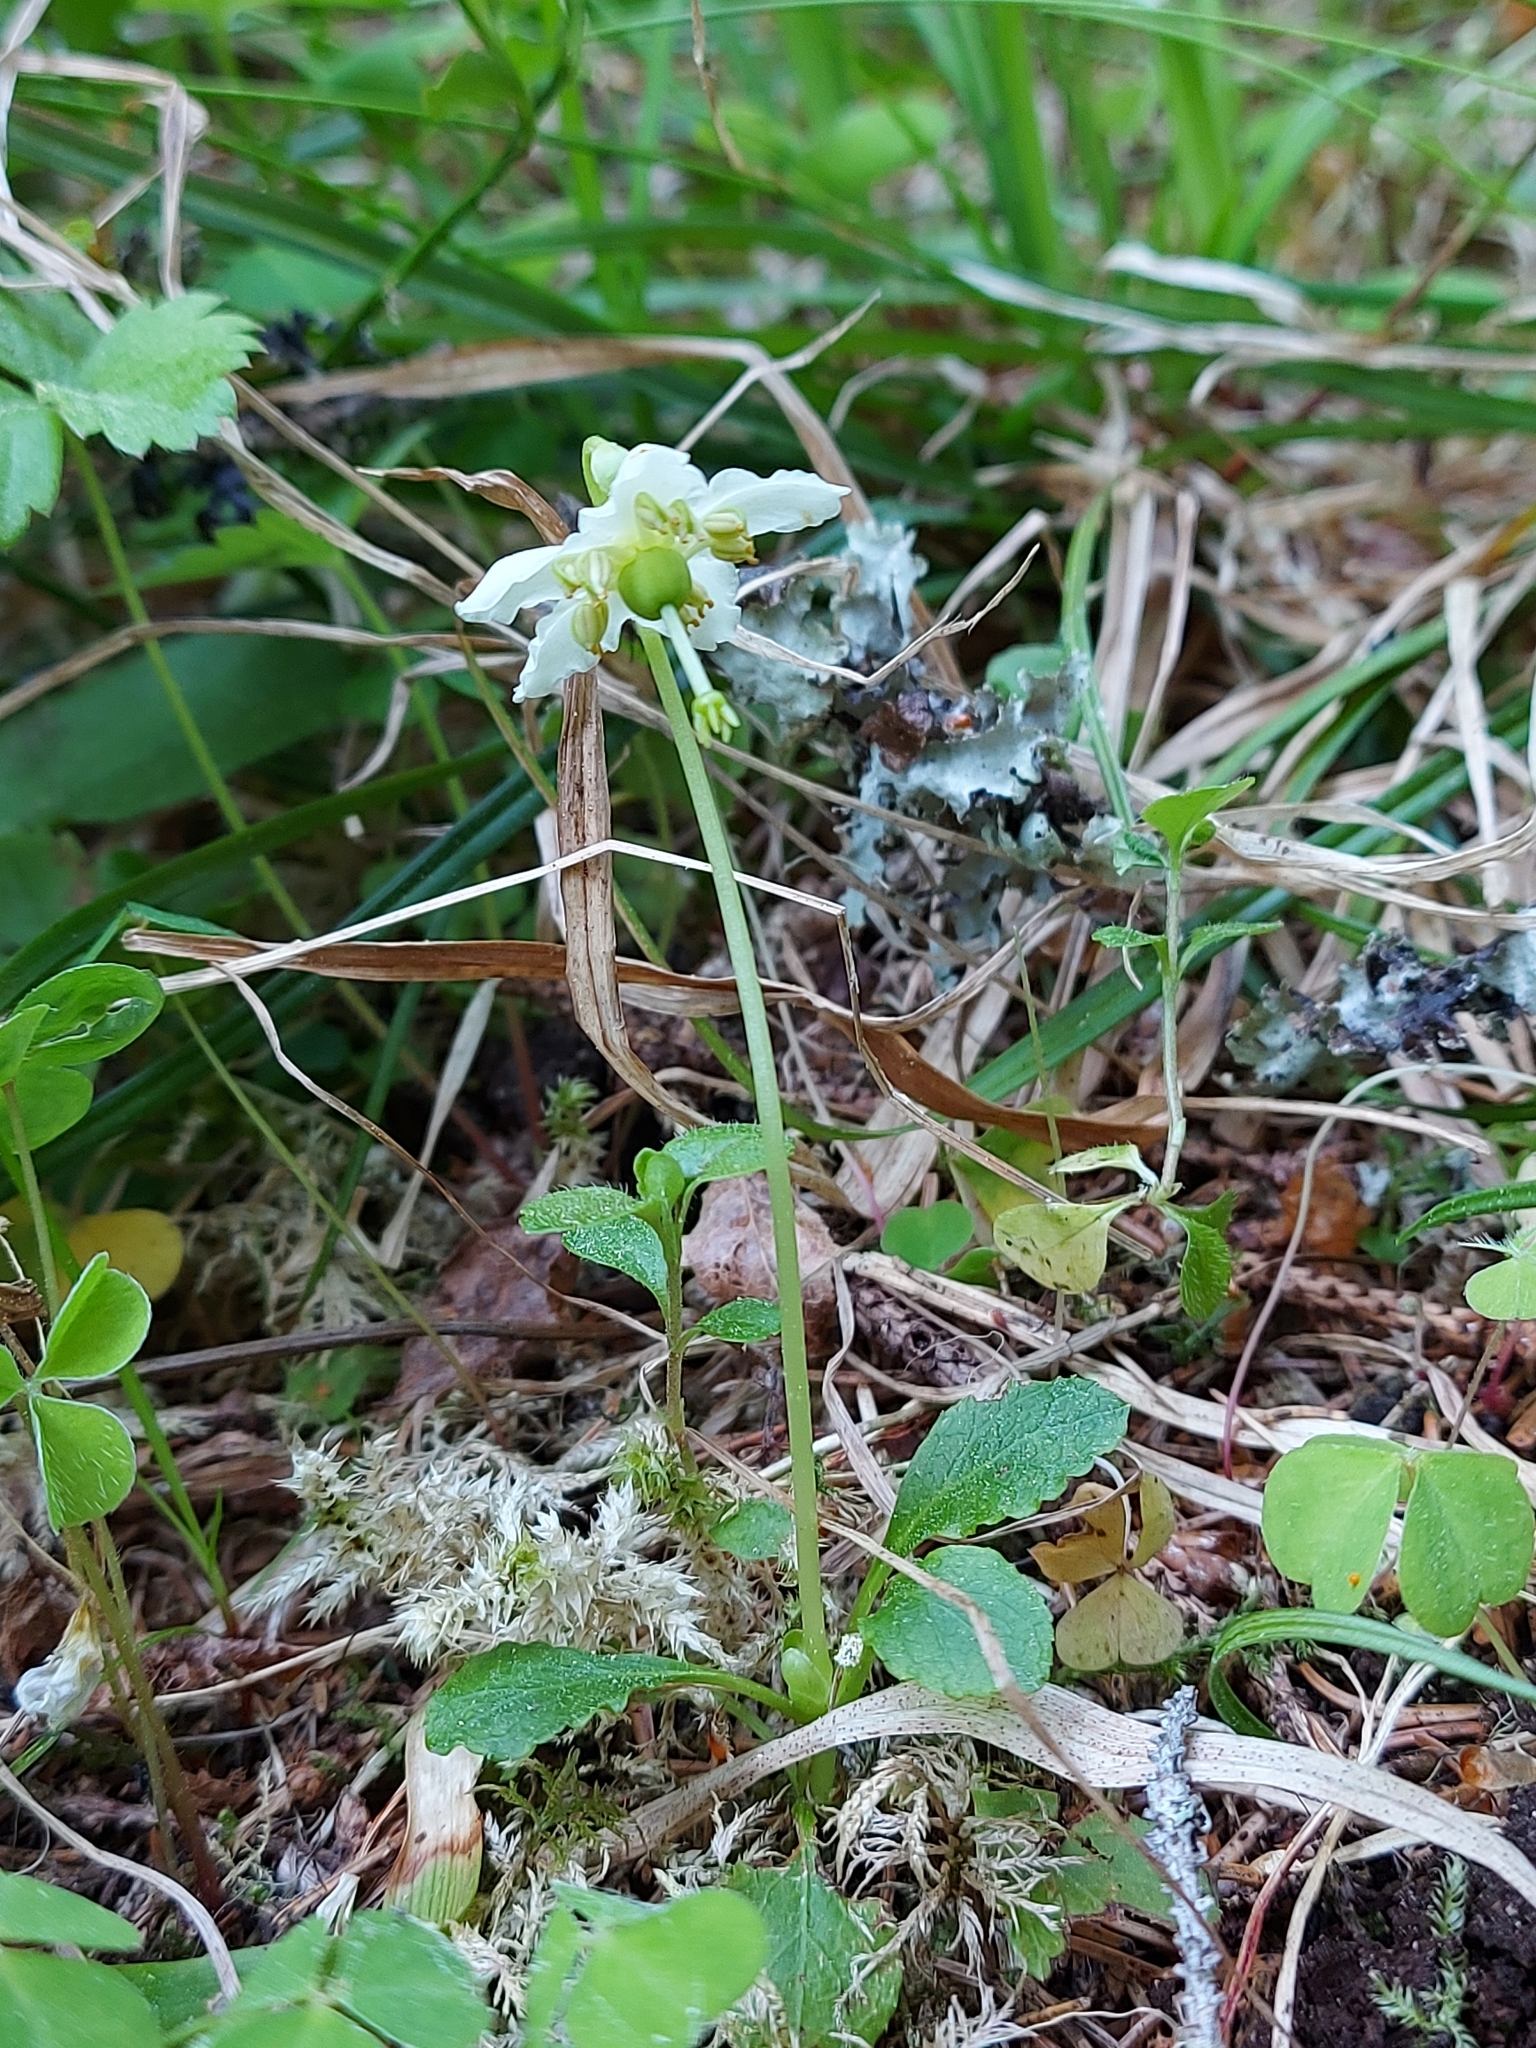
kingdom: Plantae
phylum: Tracheophyta
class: Magnoliopsida
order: Ericales
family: Ericaceae
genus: Moneses
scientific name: Moneses uniflora
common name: One-flowered wintergreen
